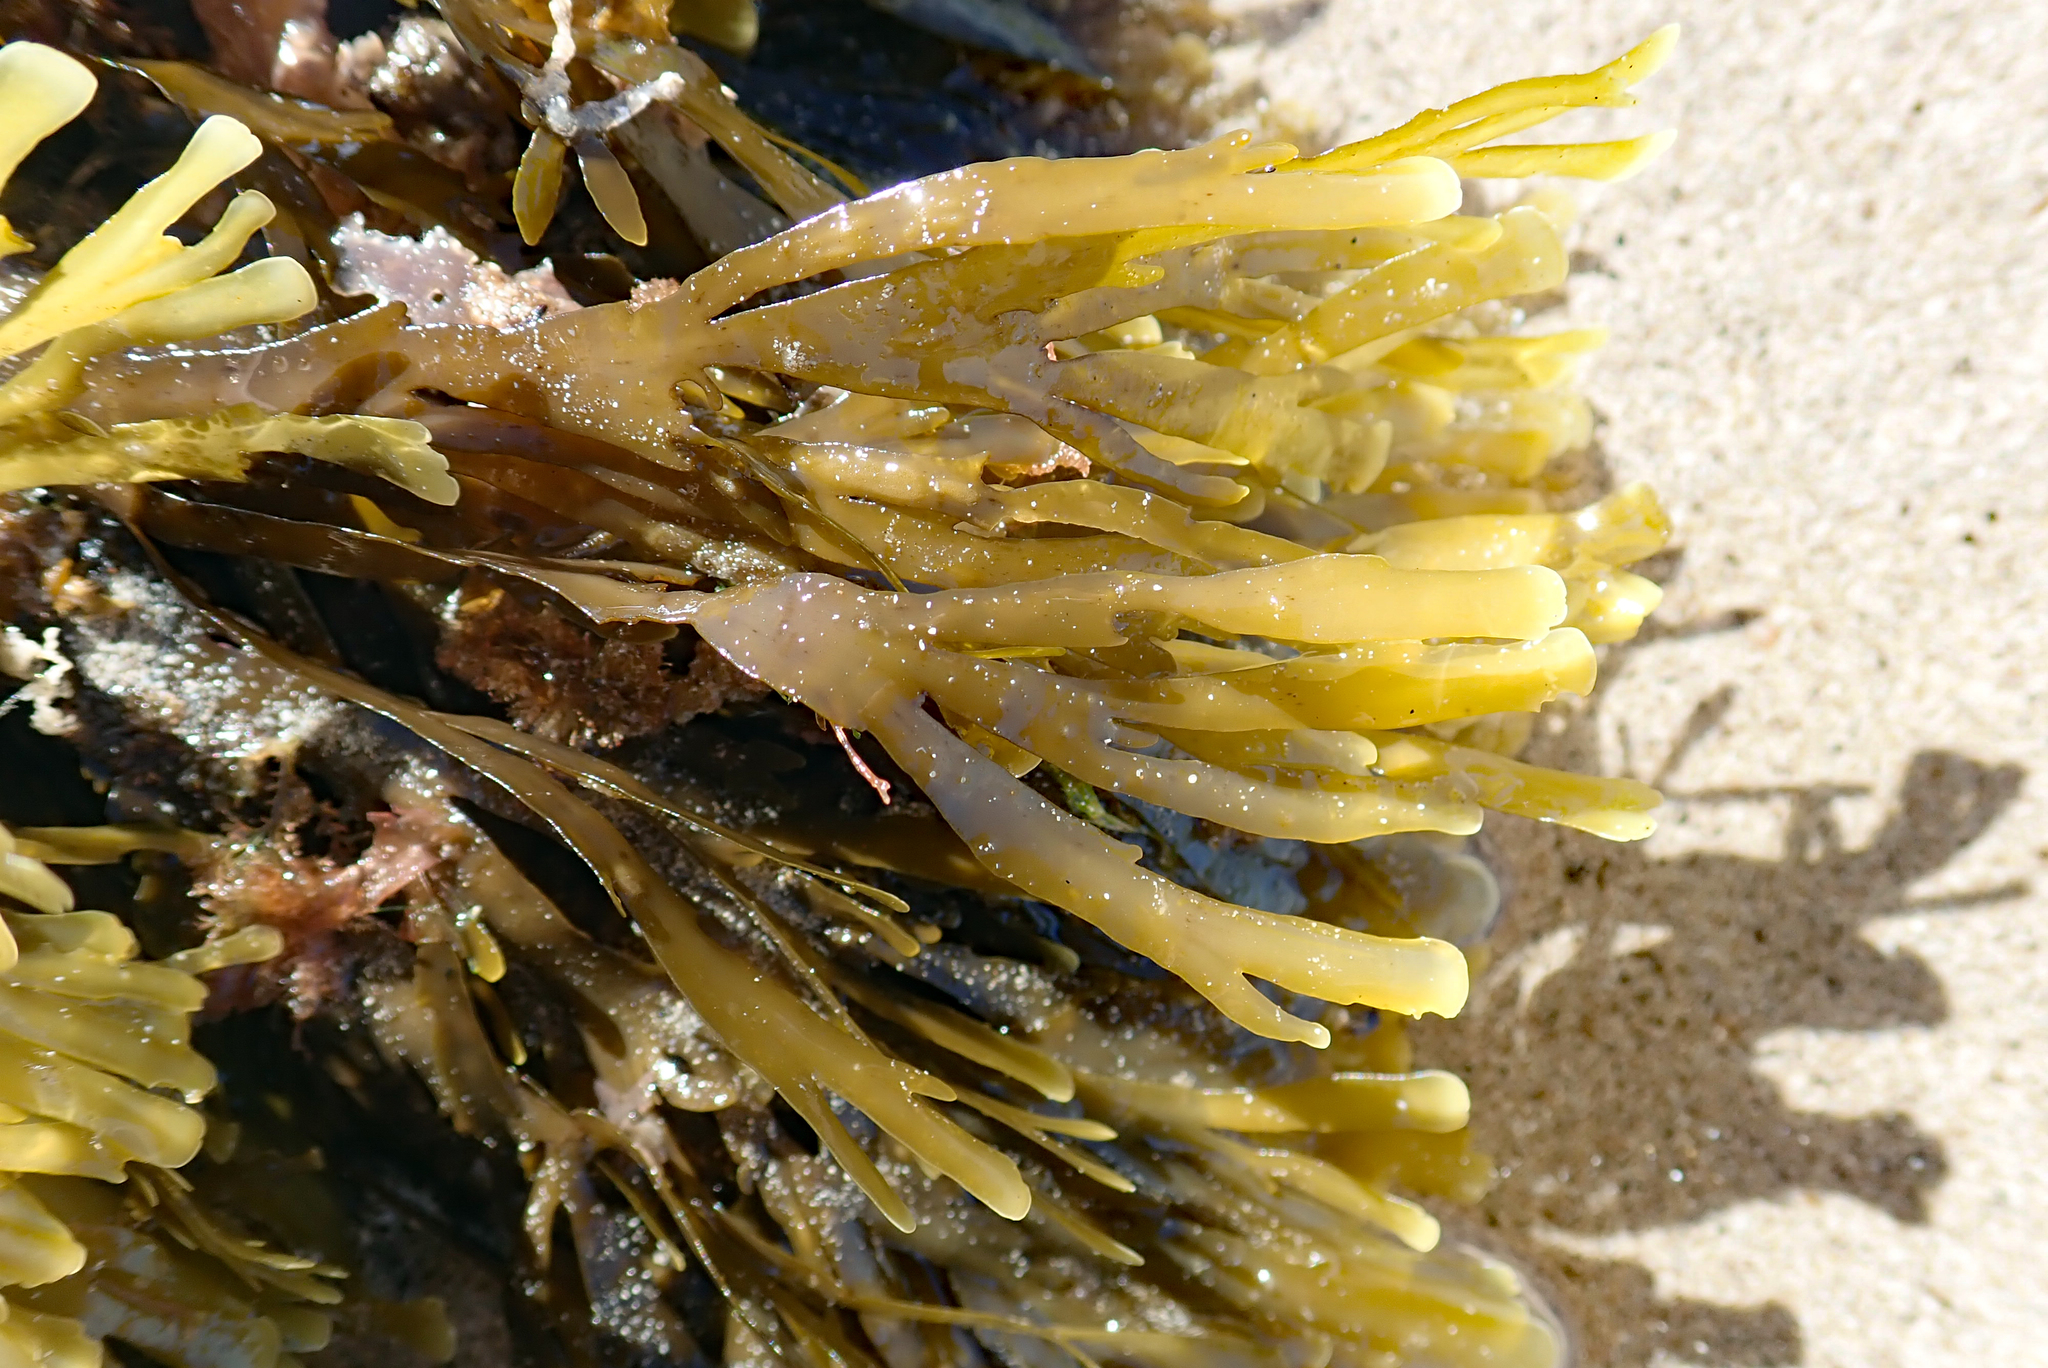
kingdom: Chromista
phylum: Ochrophyta
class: Phaeophyceae
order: Dictyotales
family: Dictyotaceae
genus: Zonaria
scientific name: Zonaria turneriana
